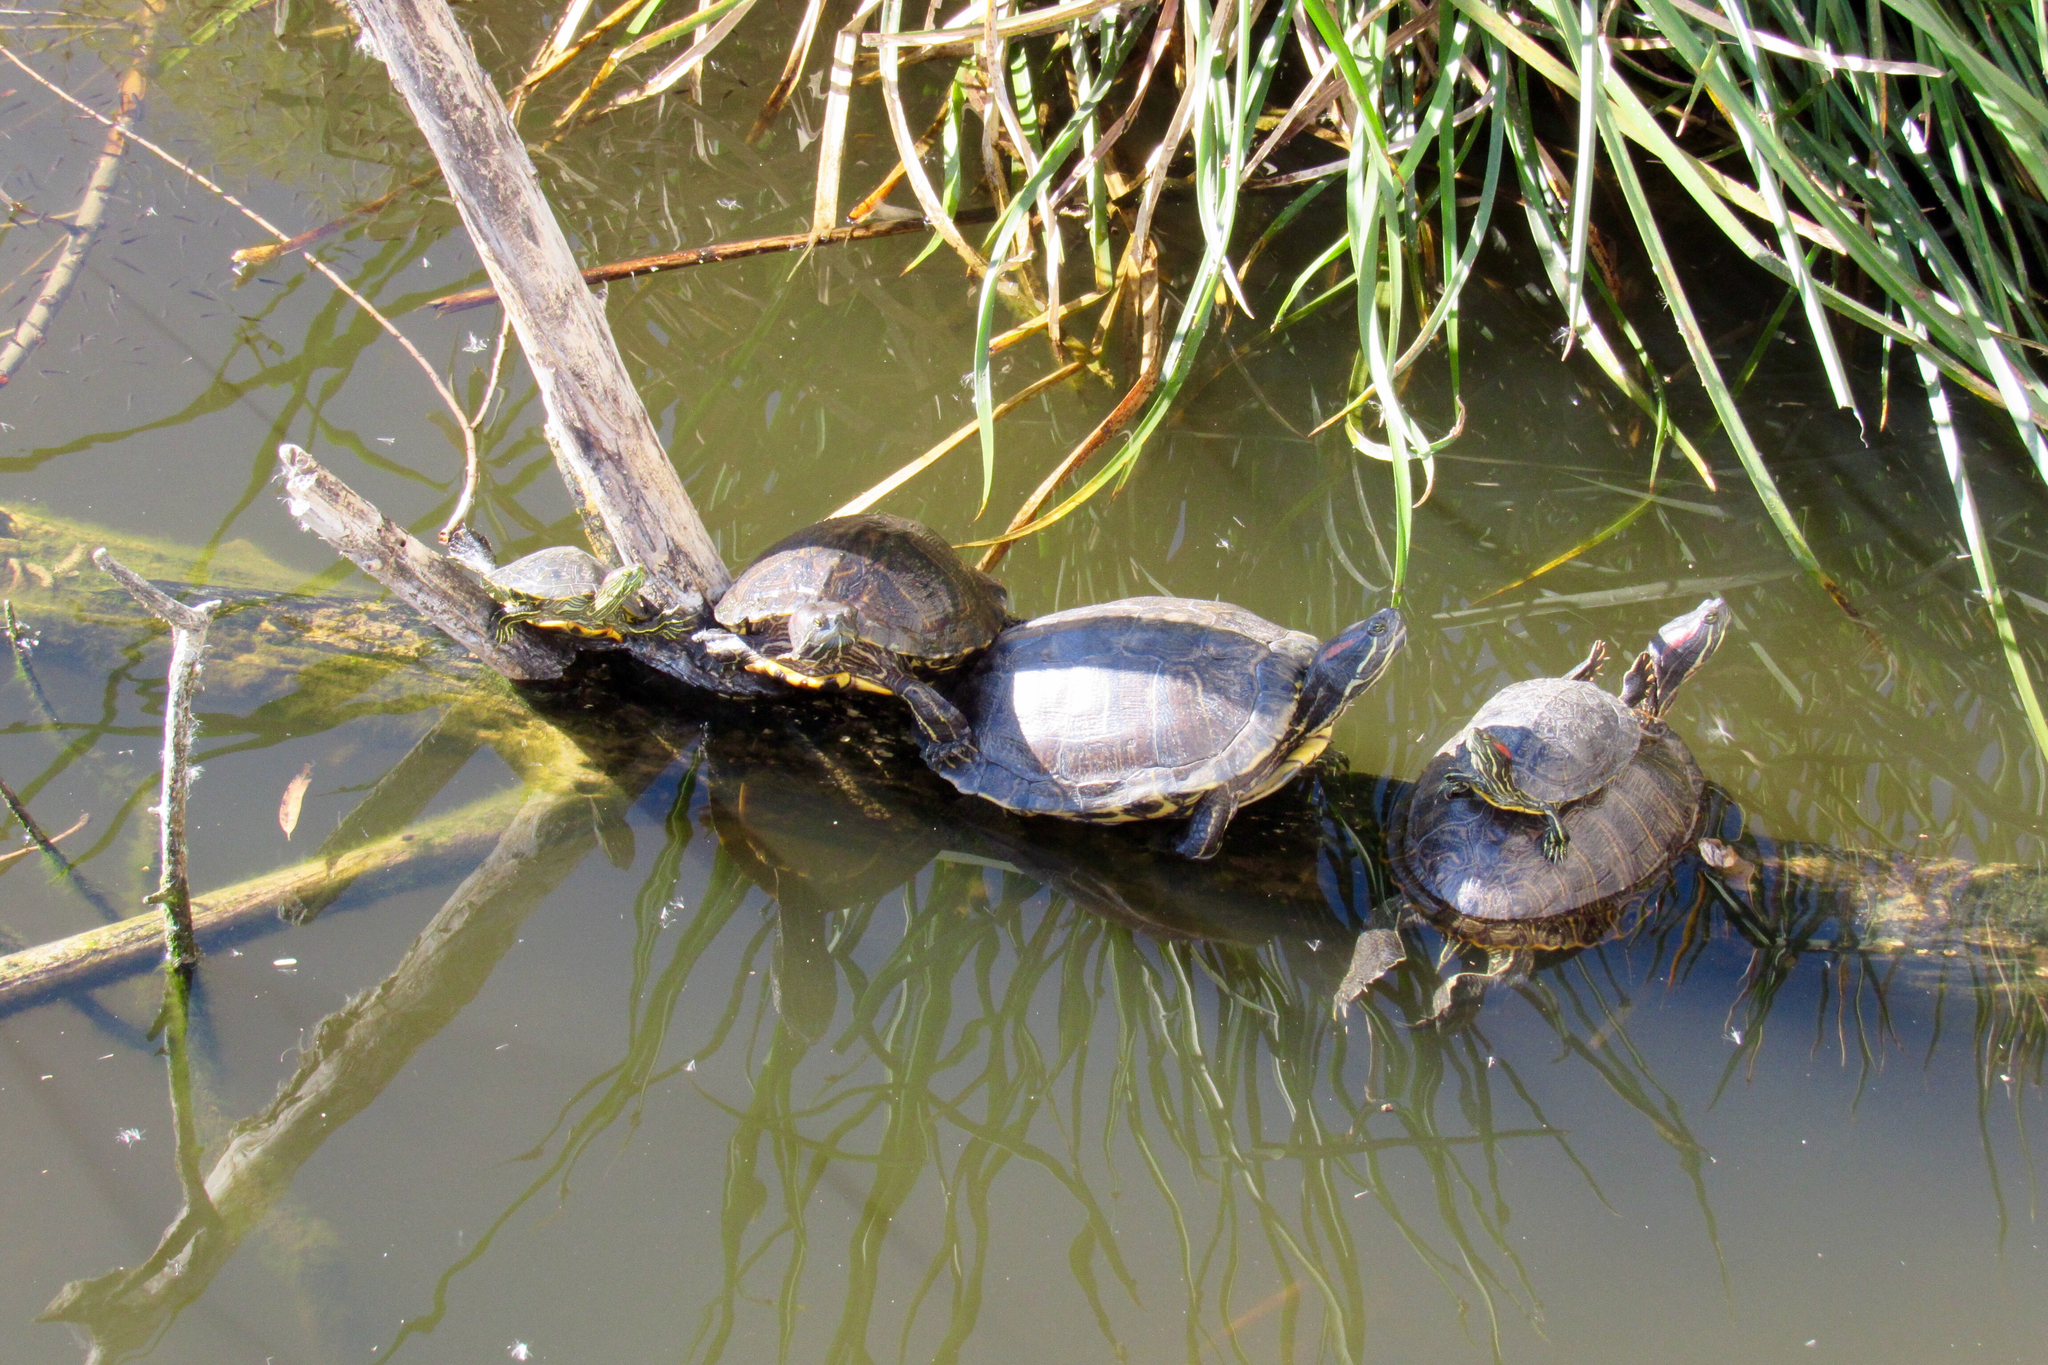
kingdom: Animalia
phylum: Chordata
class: Testudines
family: Emydidae
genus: Trachemys
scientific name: Trachemys scripta
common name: Slider
